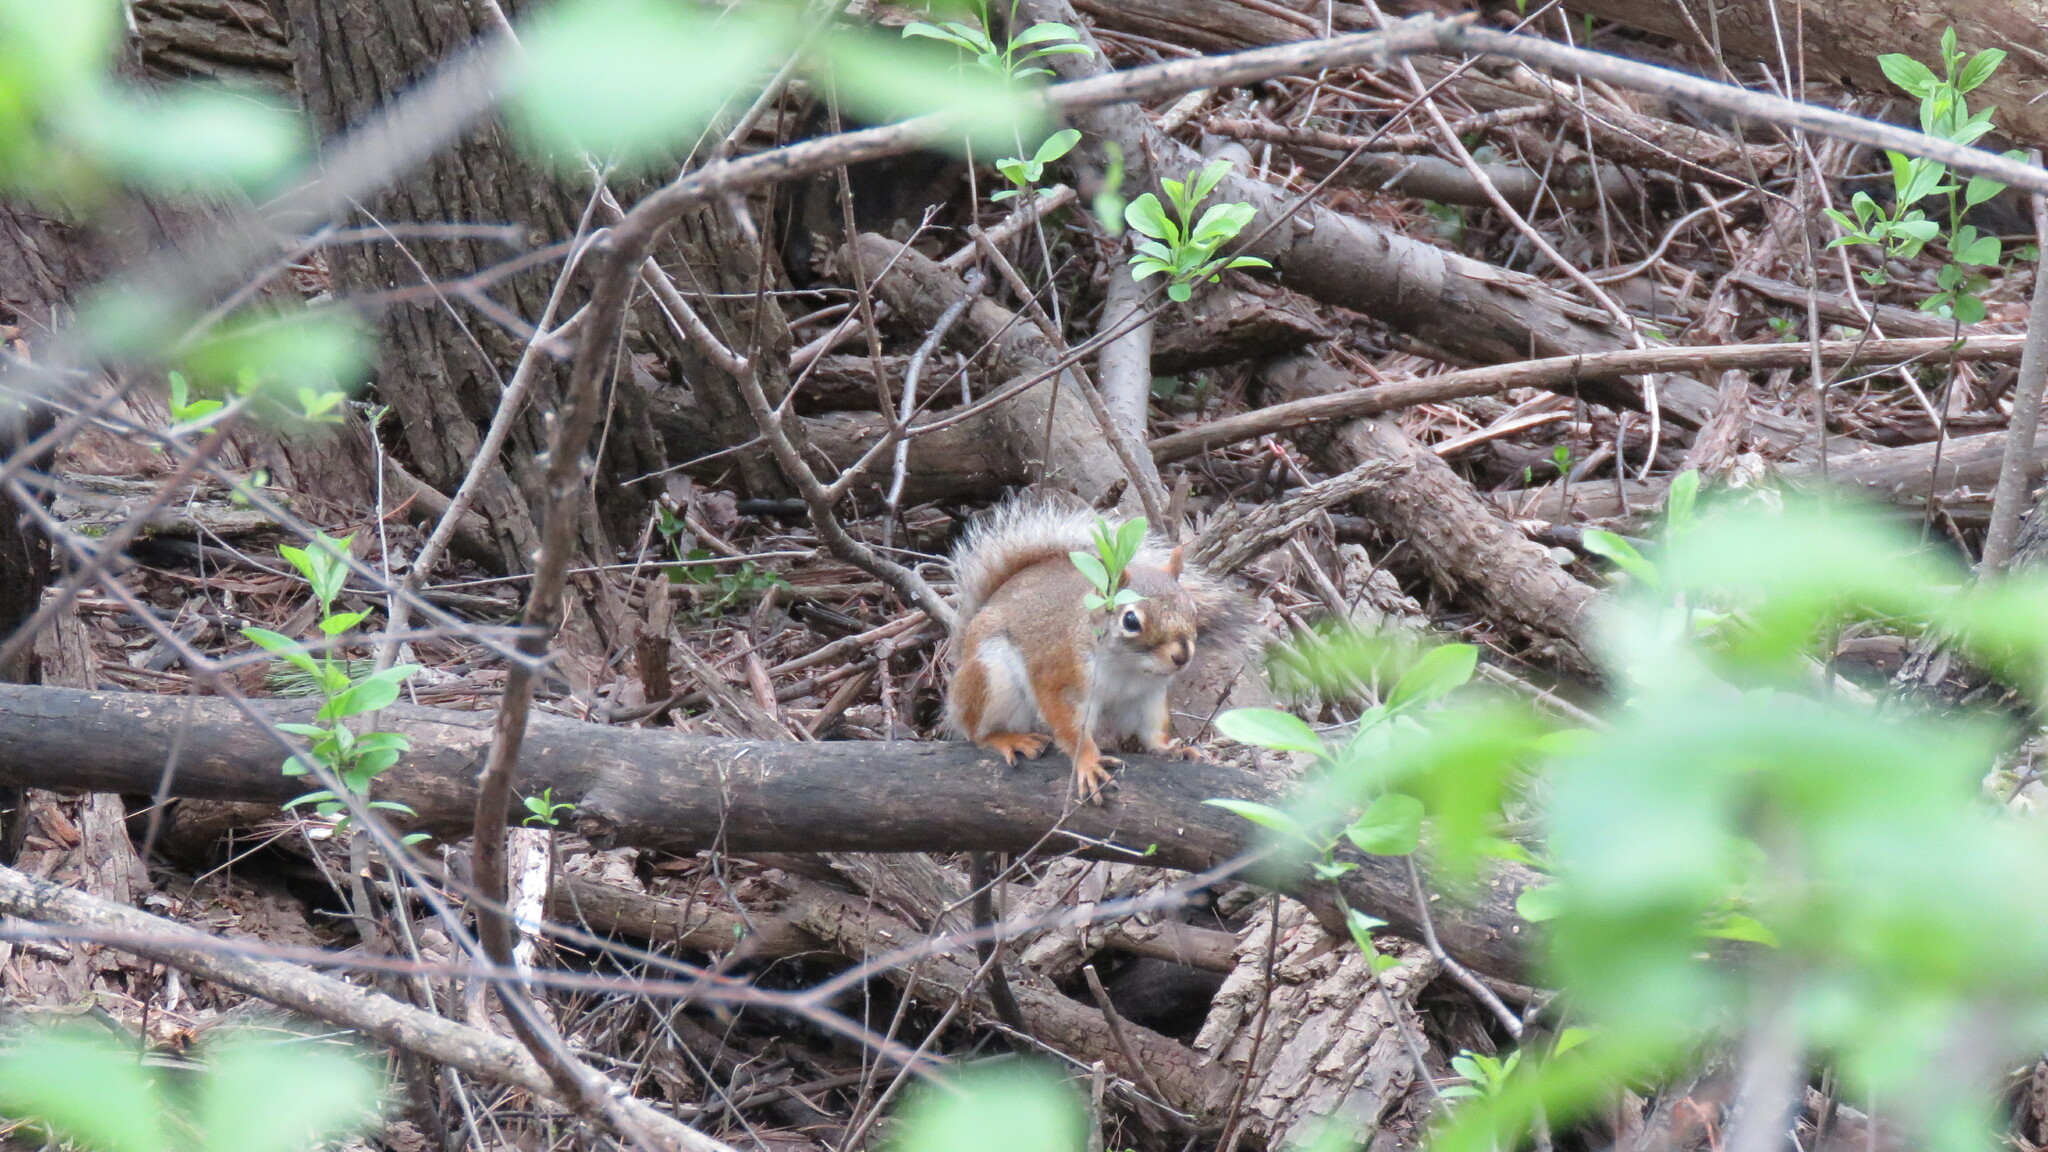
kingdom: Animalia
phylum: Chordata
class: Mammalia
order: Rodentia
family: Sciuridae
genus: Tamiasciurus
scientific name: Tamiasciurus hudsonicus
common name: Red squirrel
